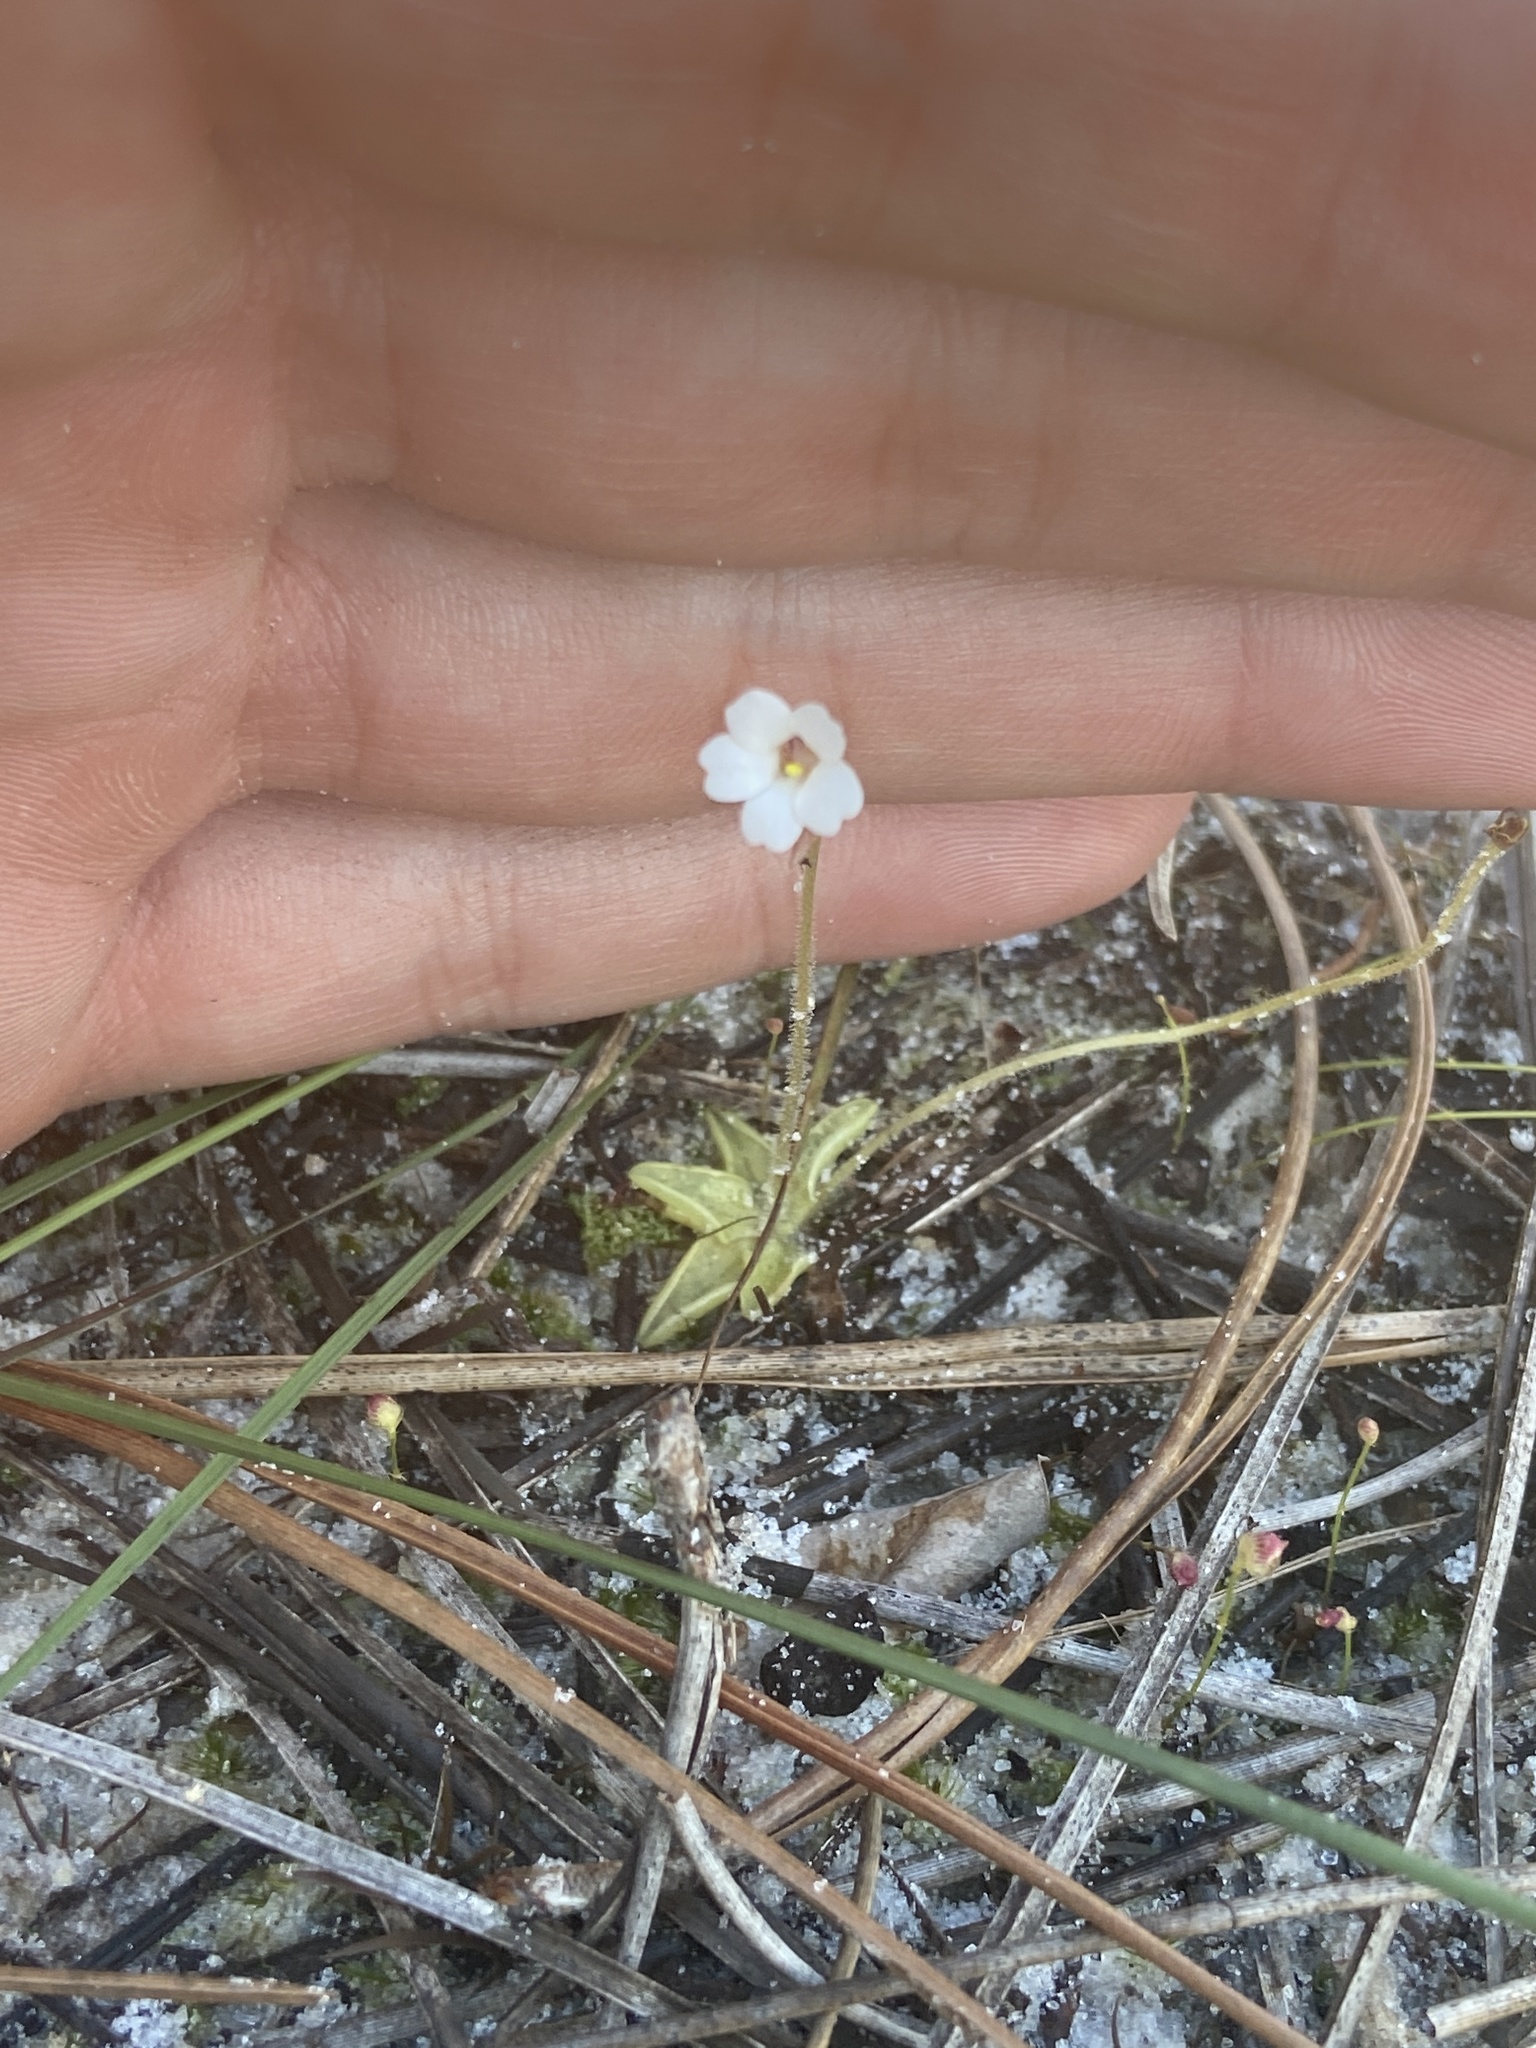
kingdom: Plantae
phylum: Tracheophyta
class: Magnoliopsida
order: Lamiales
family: Lentibulariaceae
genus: Pinguicula
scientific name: Pinguicula pumila
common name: Small butterwort
